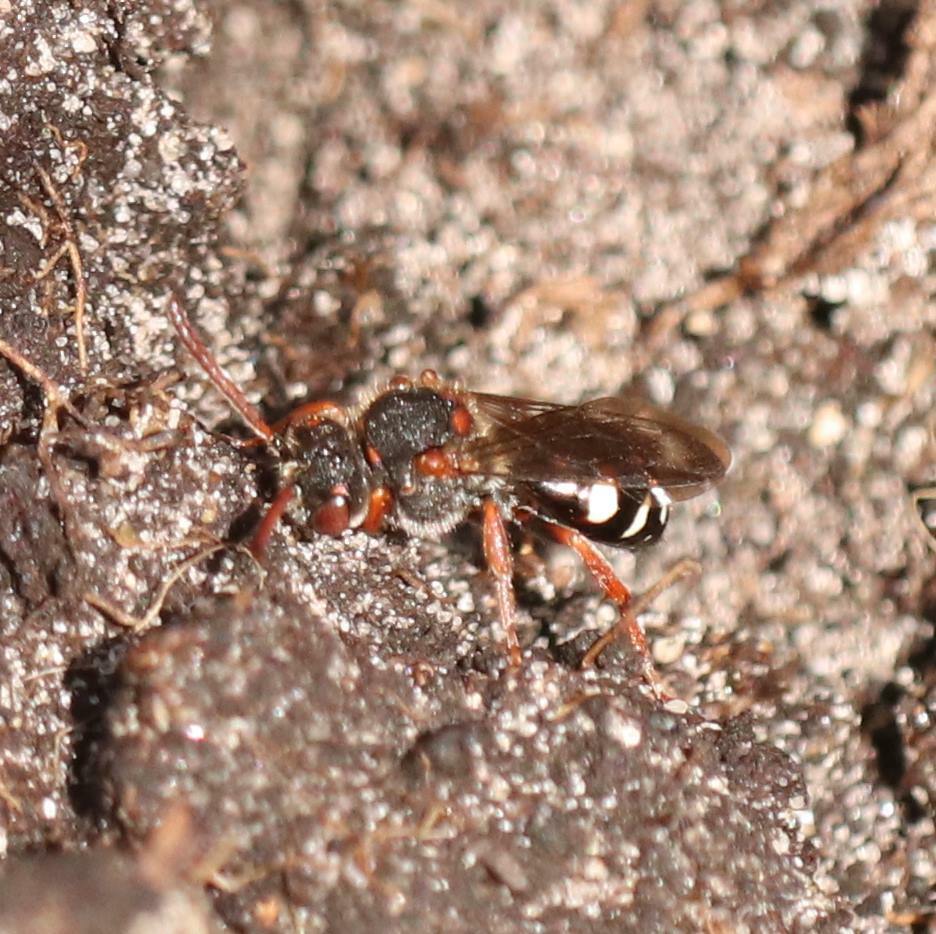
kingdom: Animalia
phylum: Arthropoda
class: Insecta
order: Hymenoptera
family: Apidae
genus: Nomada
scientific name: Nomada obscura
